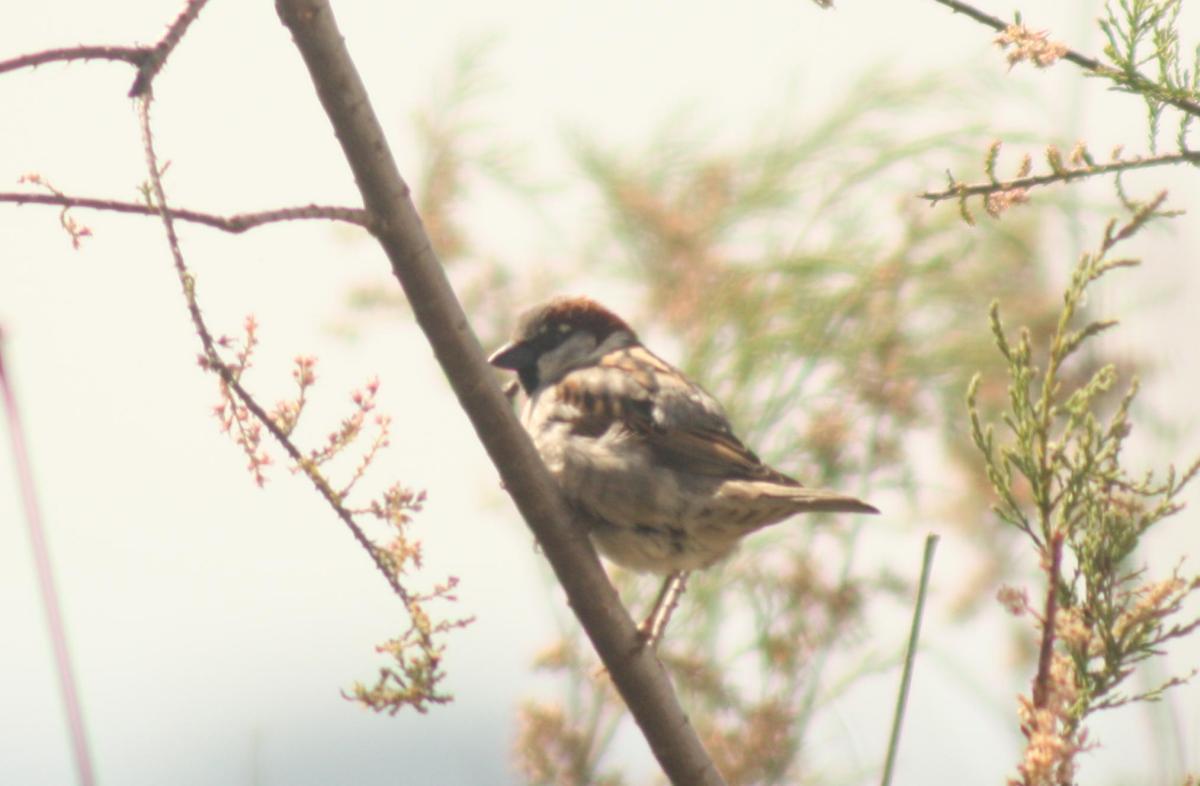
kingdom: Animalia
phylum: Chordata
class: Aves
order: Passeriformes
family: Passeridae
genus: Passer
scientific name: Passer domesticus
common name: House sparrow
